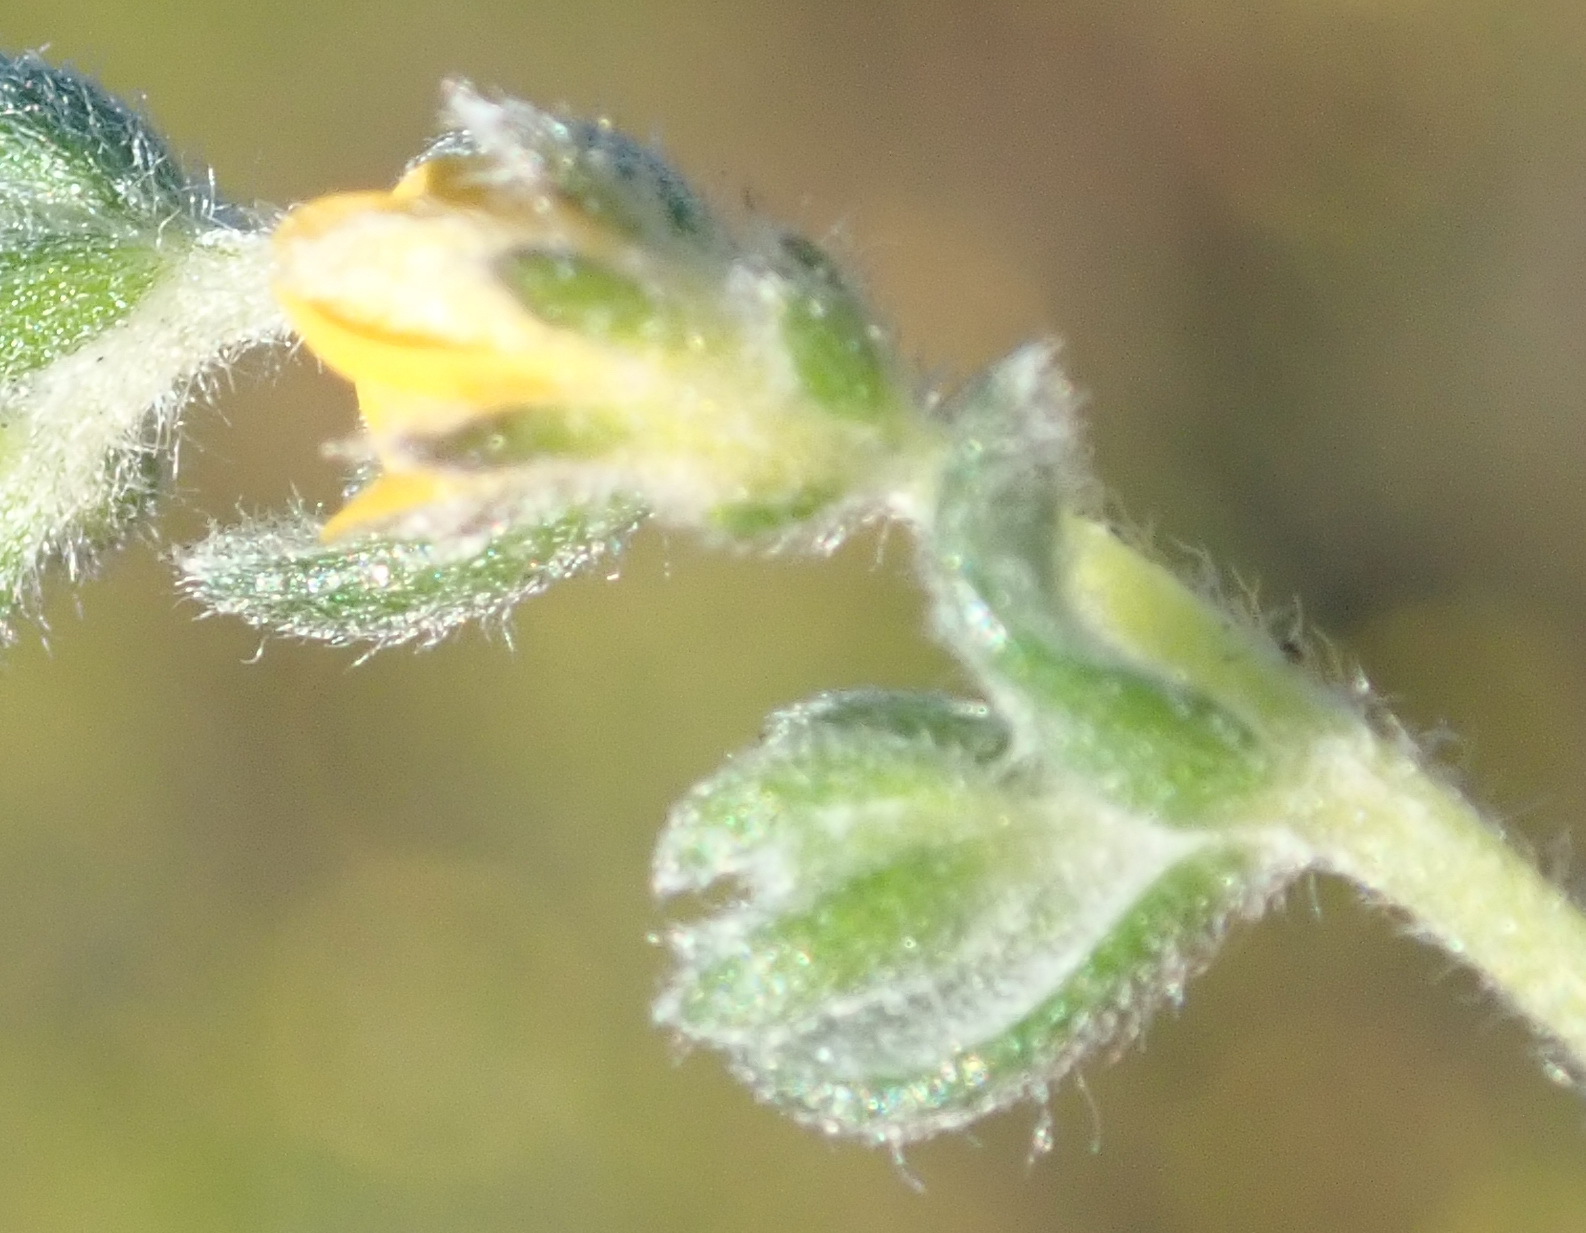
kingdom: Plantae
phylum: Tracheophyta
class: Magnoliopsida
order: Fabales
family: Fabaceae
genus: Aspalathus
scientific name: Aspalathus diffusa
